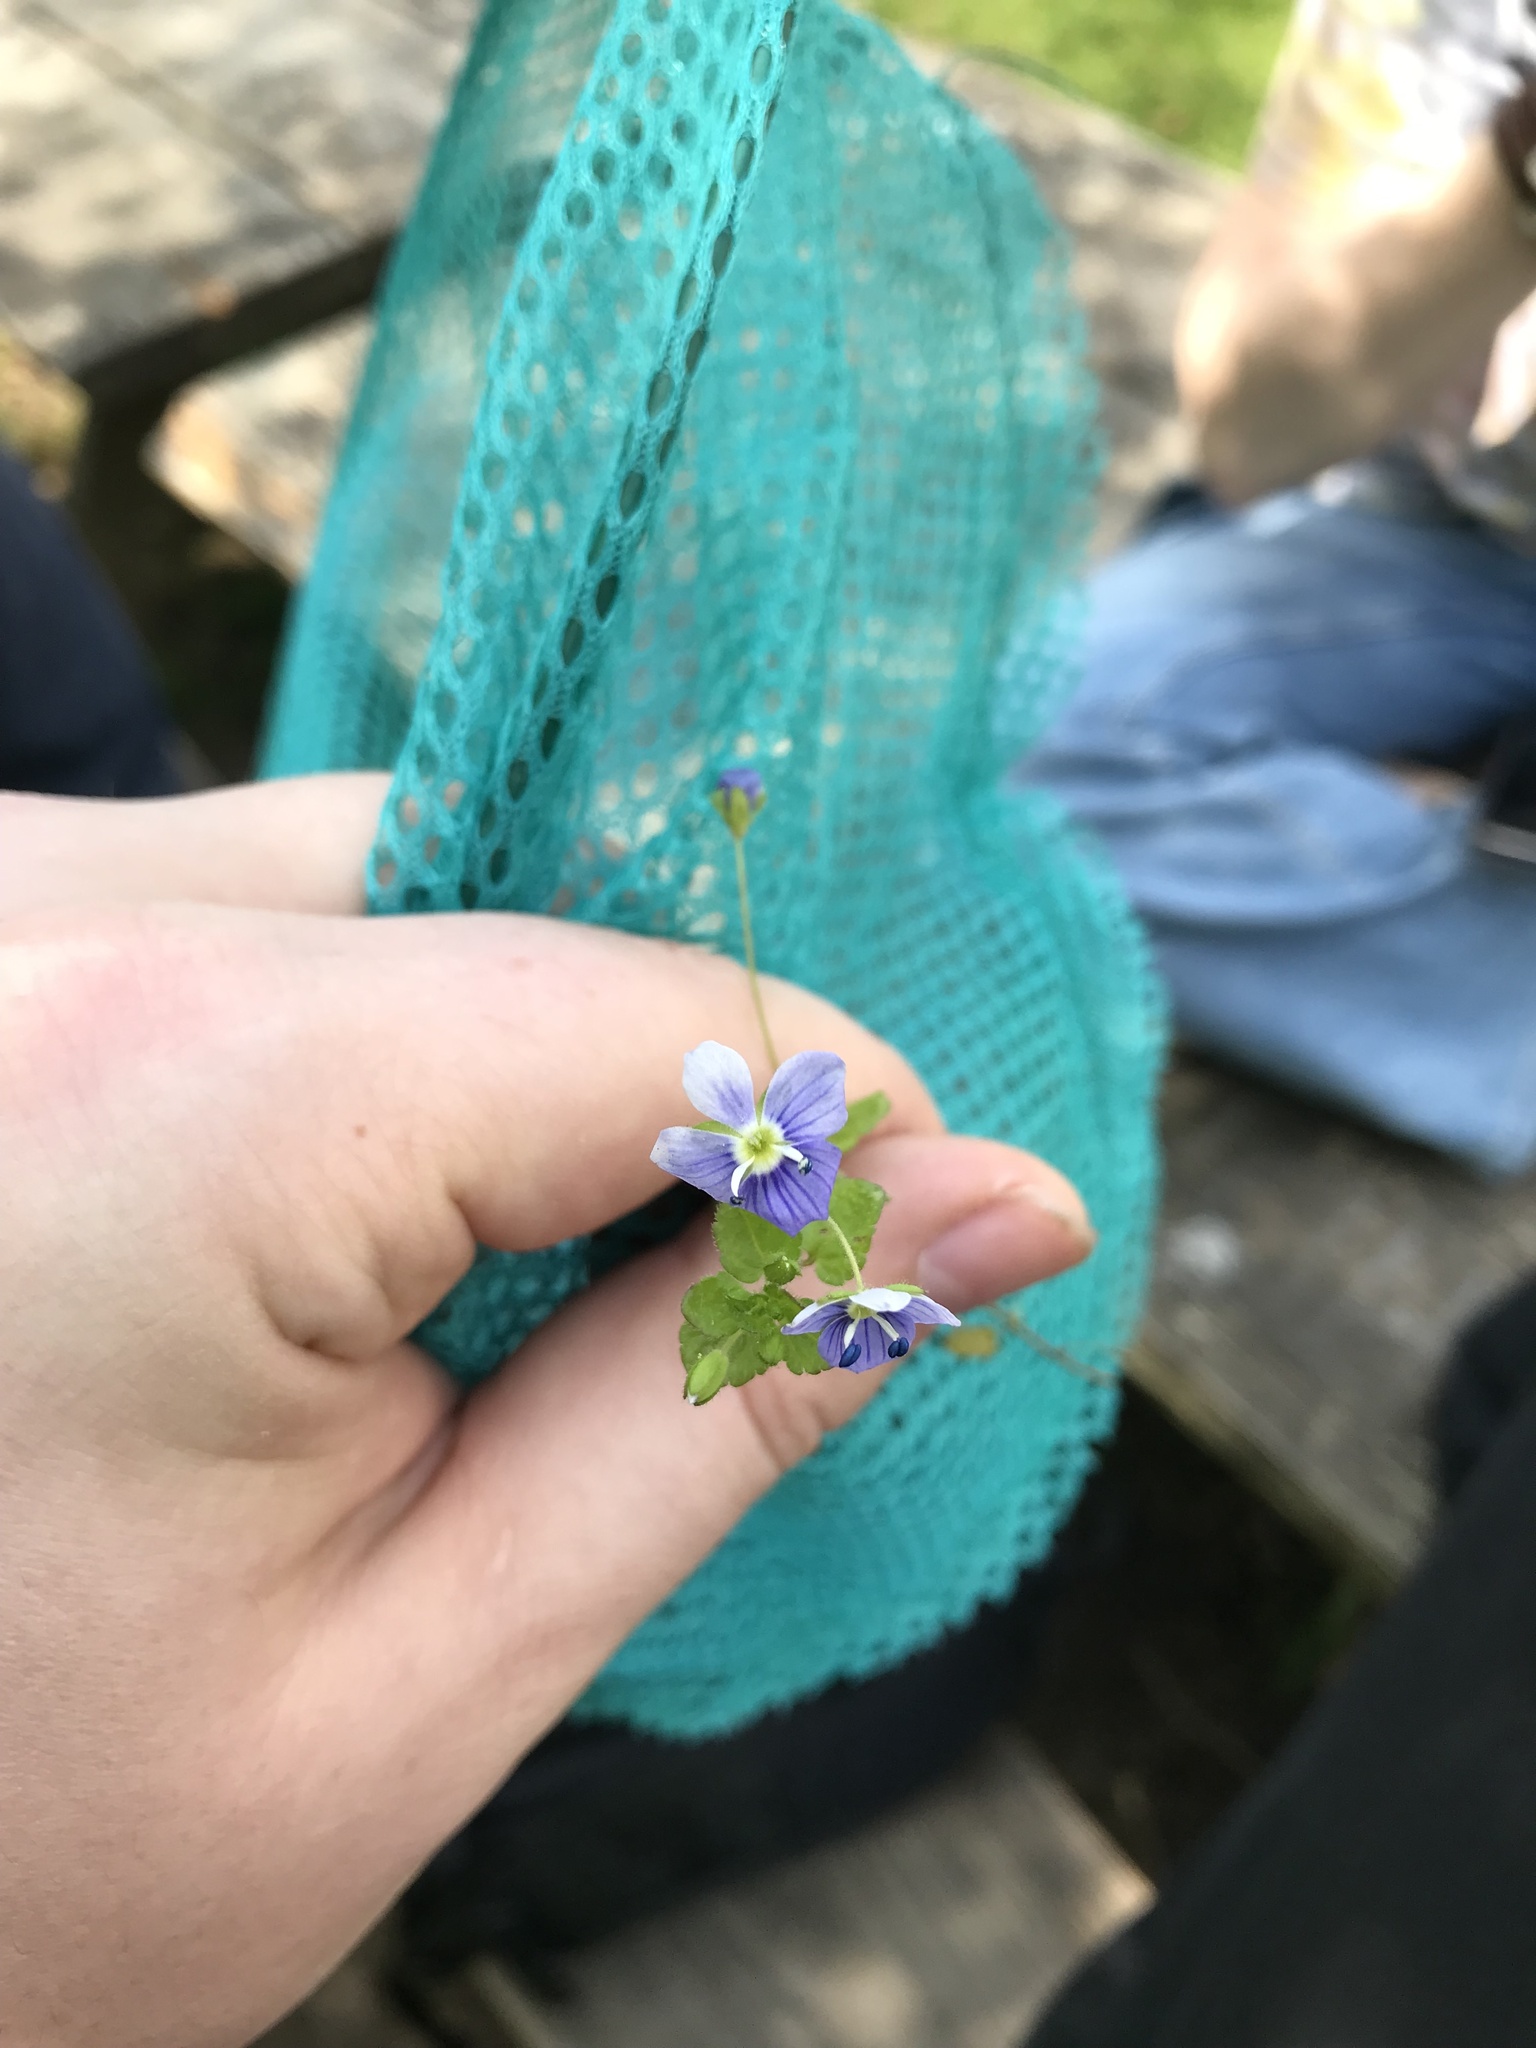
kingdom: Plantae
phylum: Tracheophyta
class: Magnoliopsida
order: Lamiales
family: Plantaginaceae
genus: Veronica
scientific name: Veronica filiformis
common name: Slender speedwell
